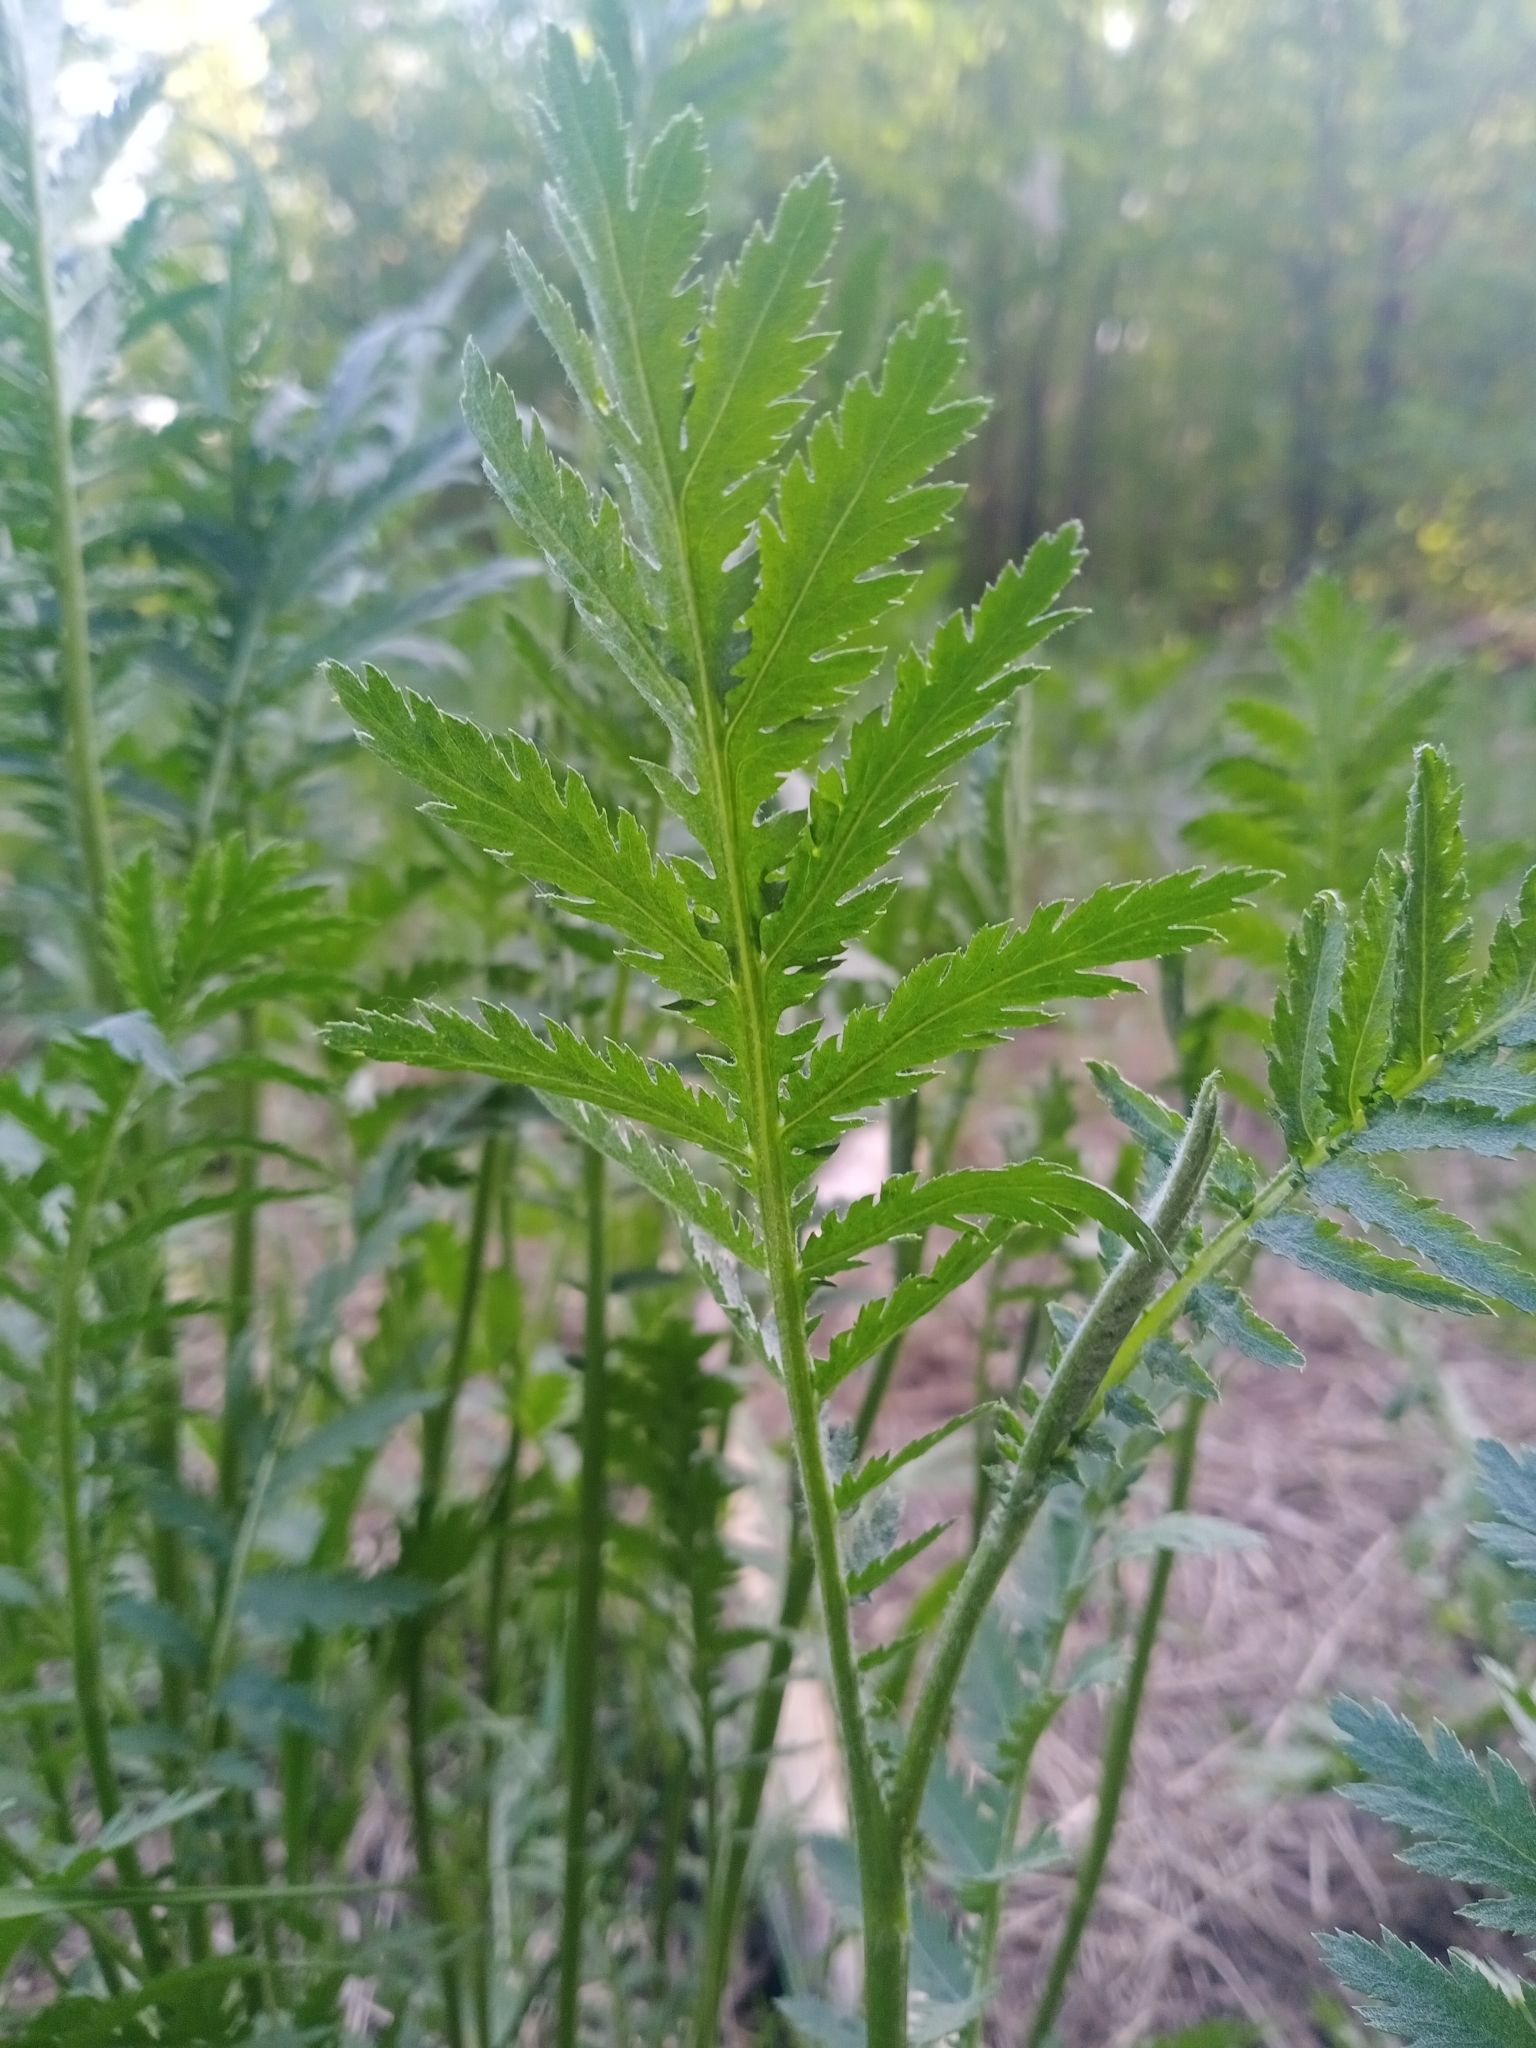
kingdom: Plantae
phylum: Tracheophyta
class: Magnoliopsida
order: Asterales
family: Asteraceae
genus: Tanacetum
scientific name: Tanacetum vulgare
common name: Common tansy
